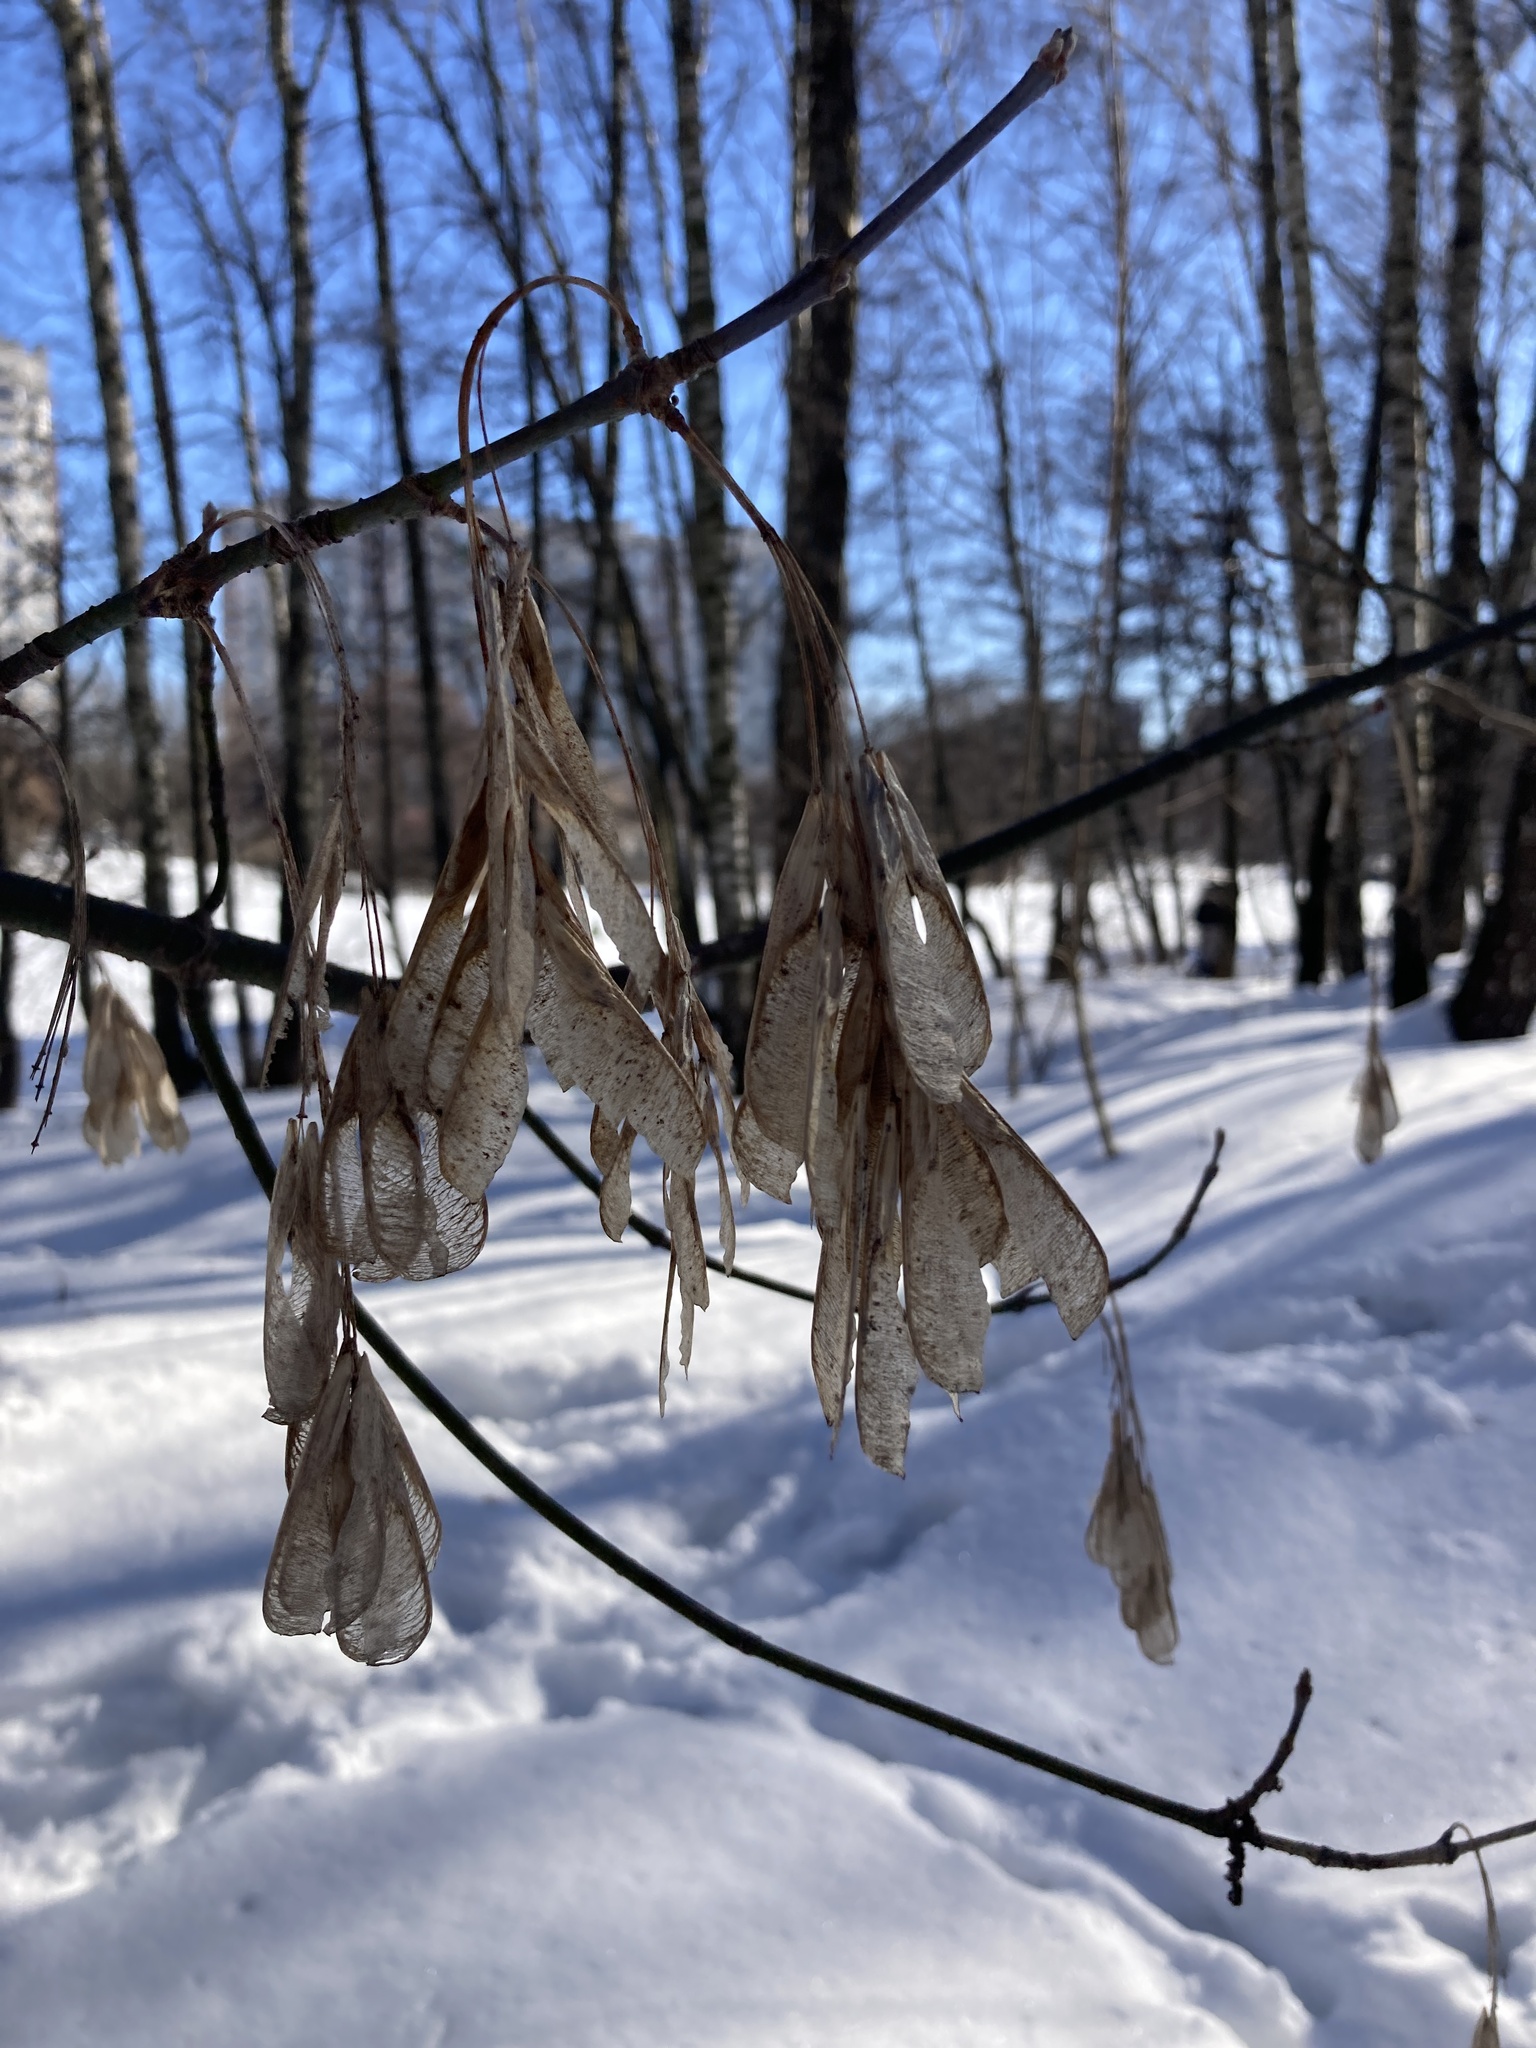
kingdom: Plantae
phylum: Tracheophyta
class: Magnoliopsida
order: Sapindales
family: Sapindaceae
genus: Acer
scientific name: Acer negundo
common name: Ashleaf maple
